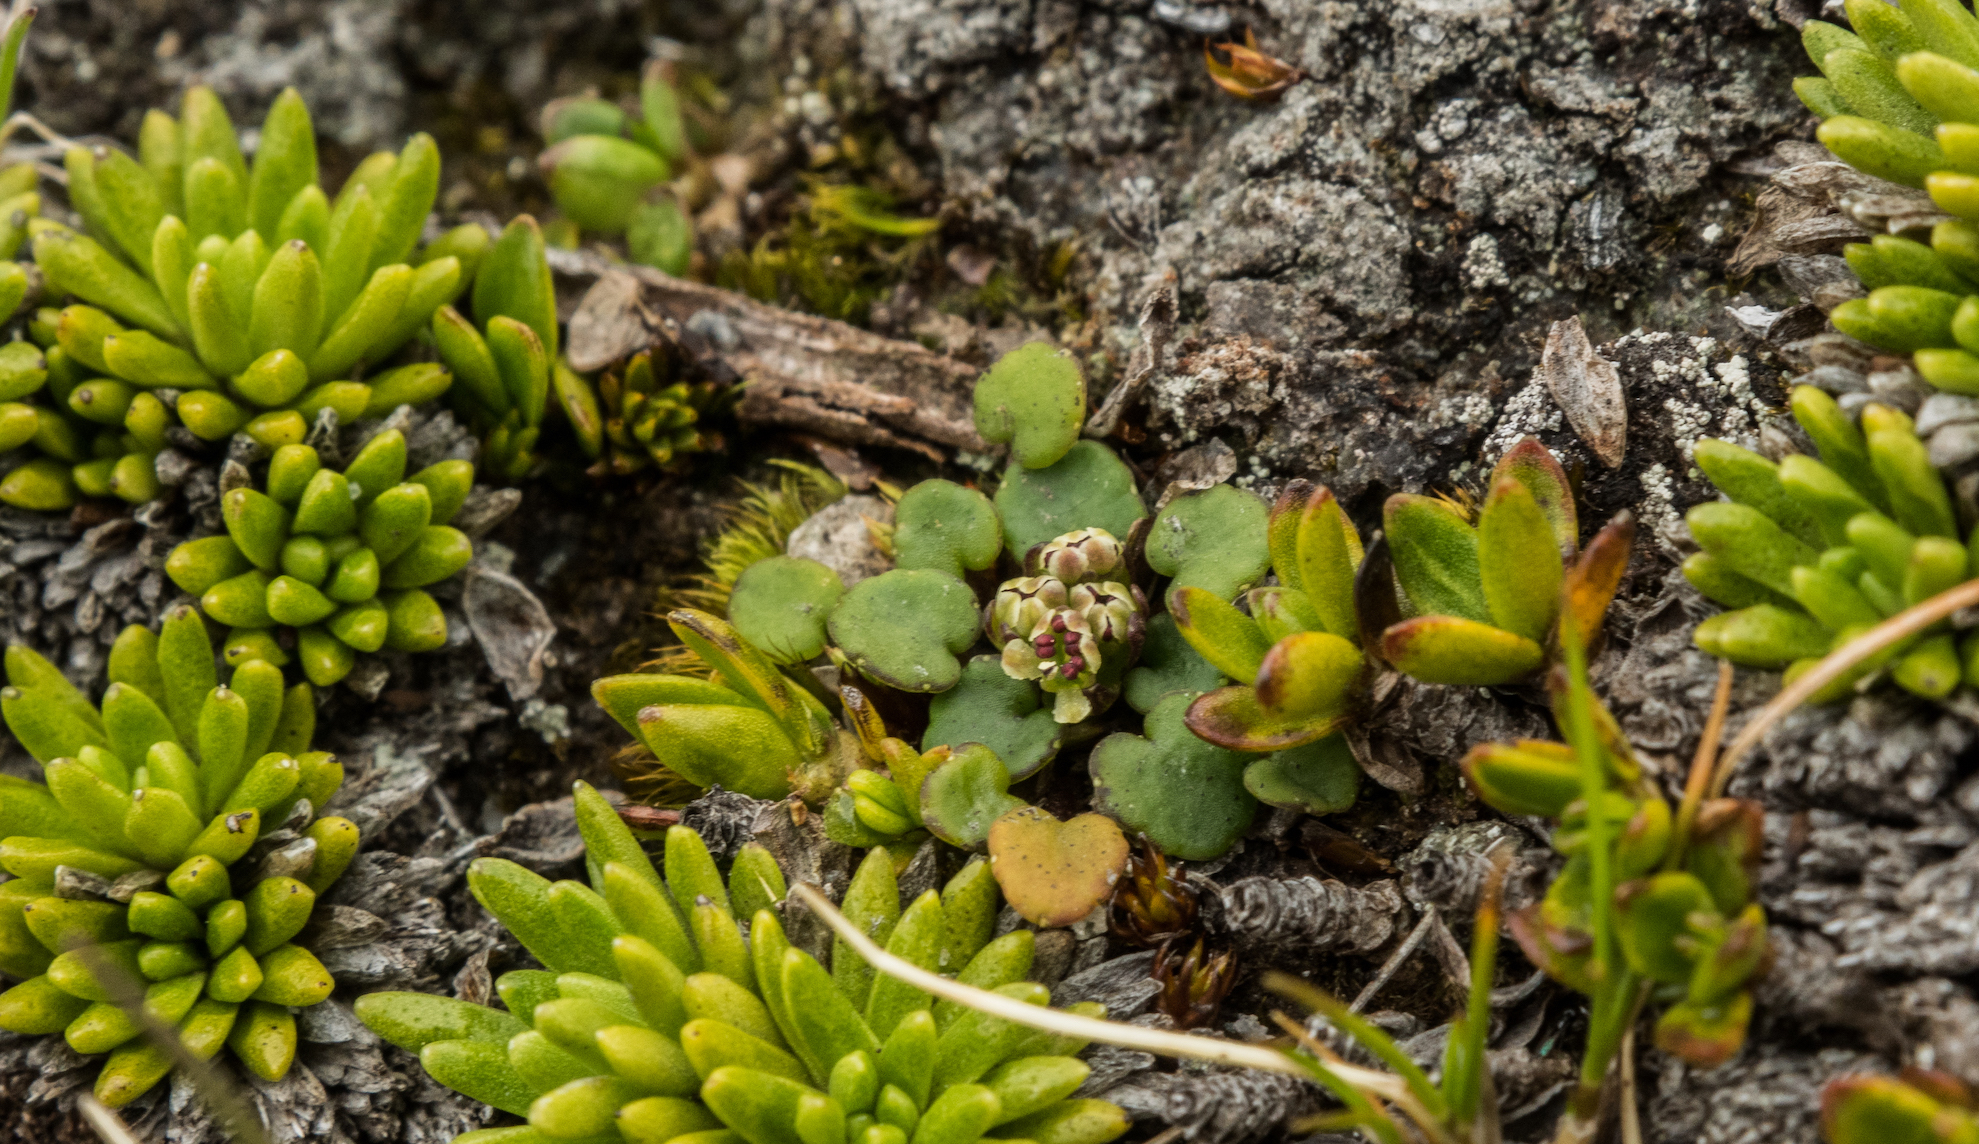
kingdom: Plantae
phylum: Tracheophyta
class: Magnoliopsida
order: Apiales
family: Apiaceae
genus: Azorella
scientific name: Azorella exigua
